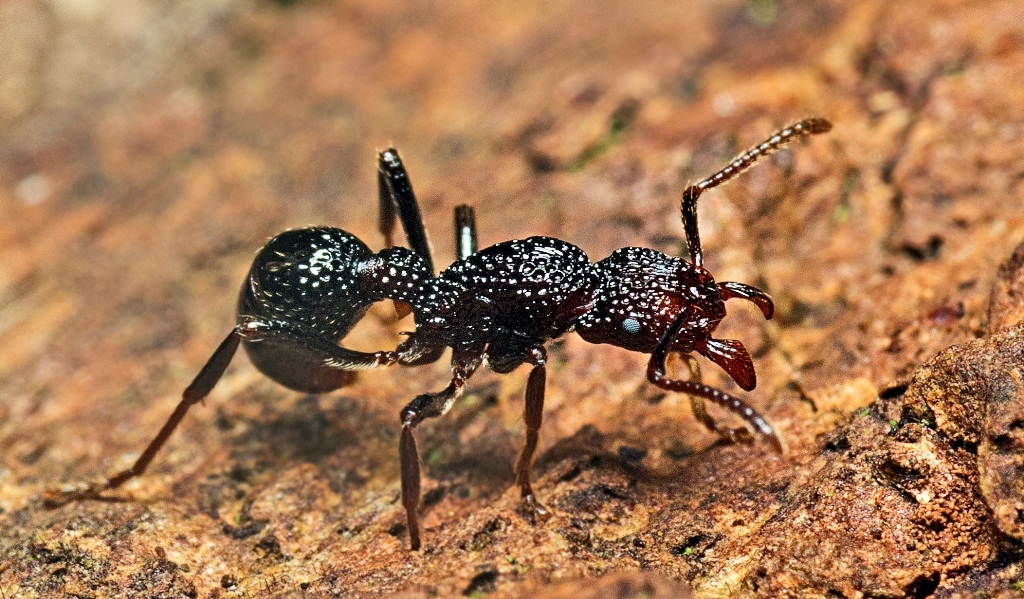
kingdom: Animalia
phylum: Arthropoda
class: Insecta
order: Hymenoptera
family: Formicidae
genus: Stictoponera
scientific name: Stictoponera
